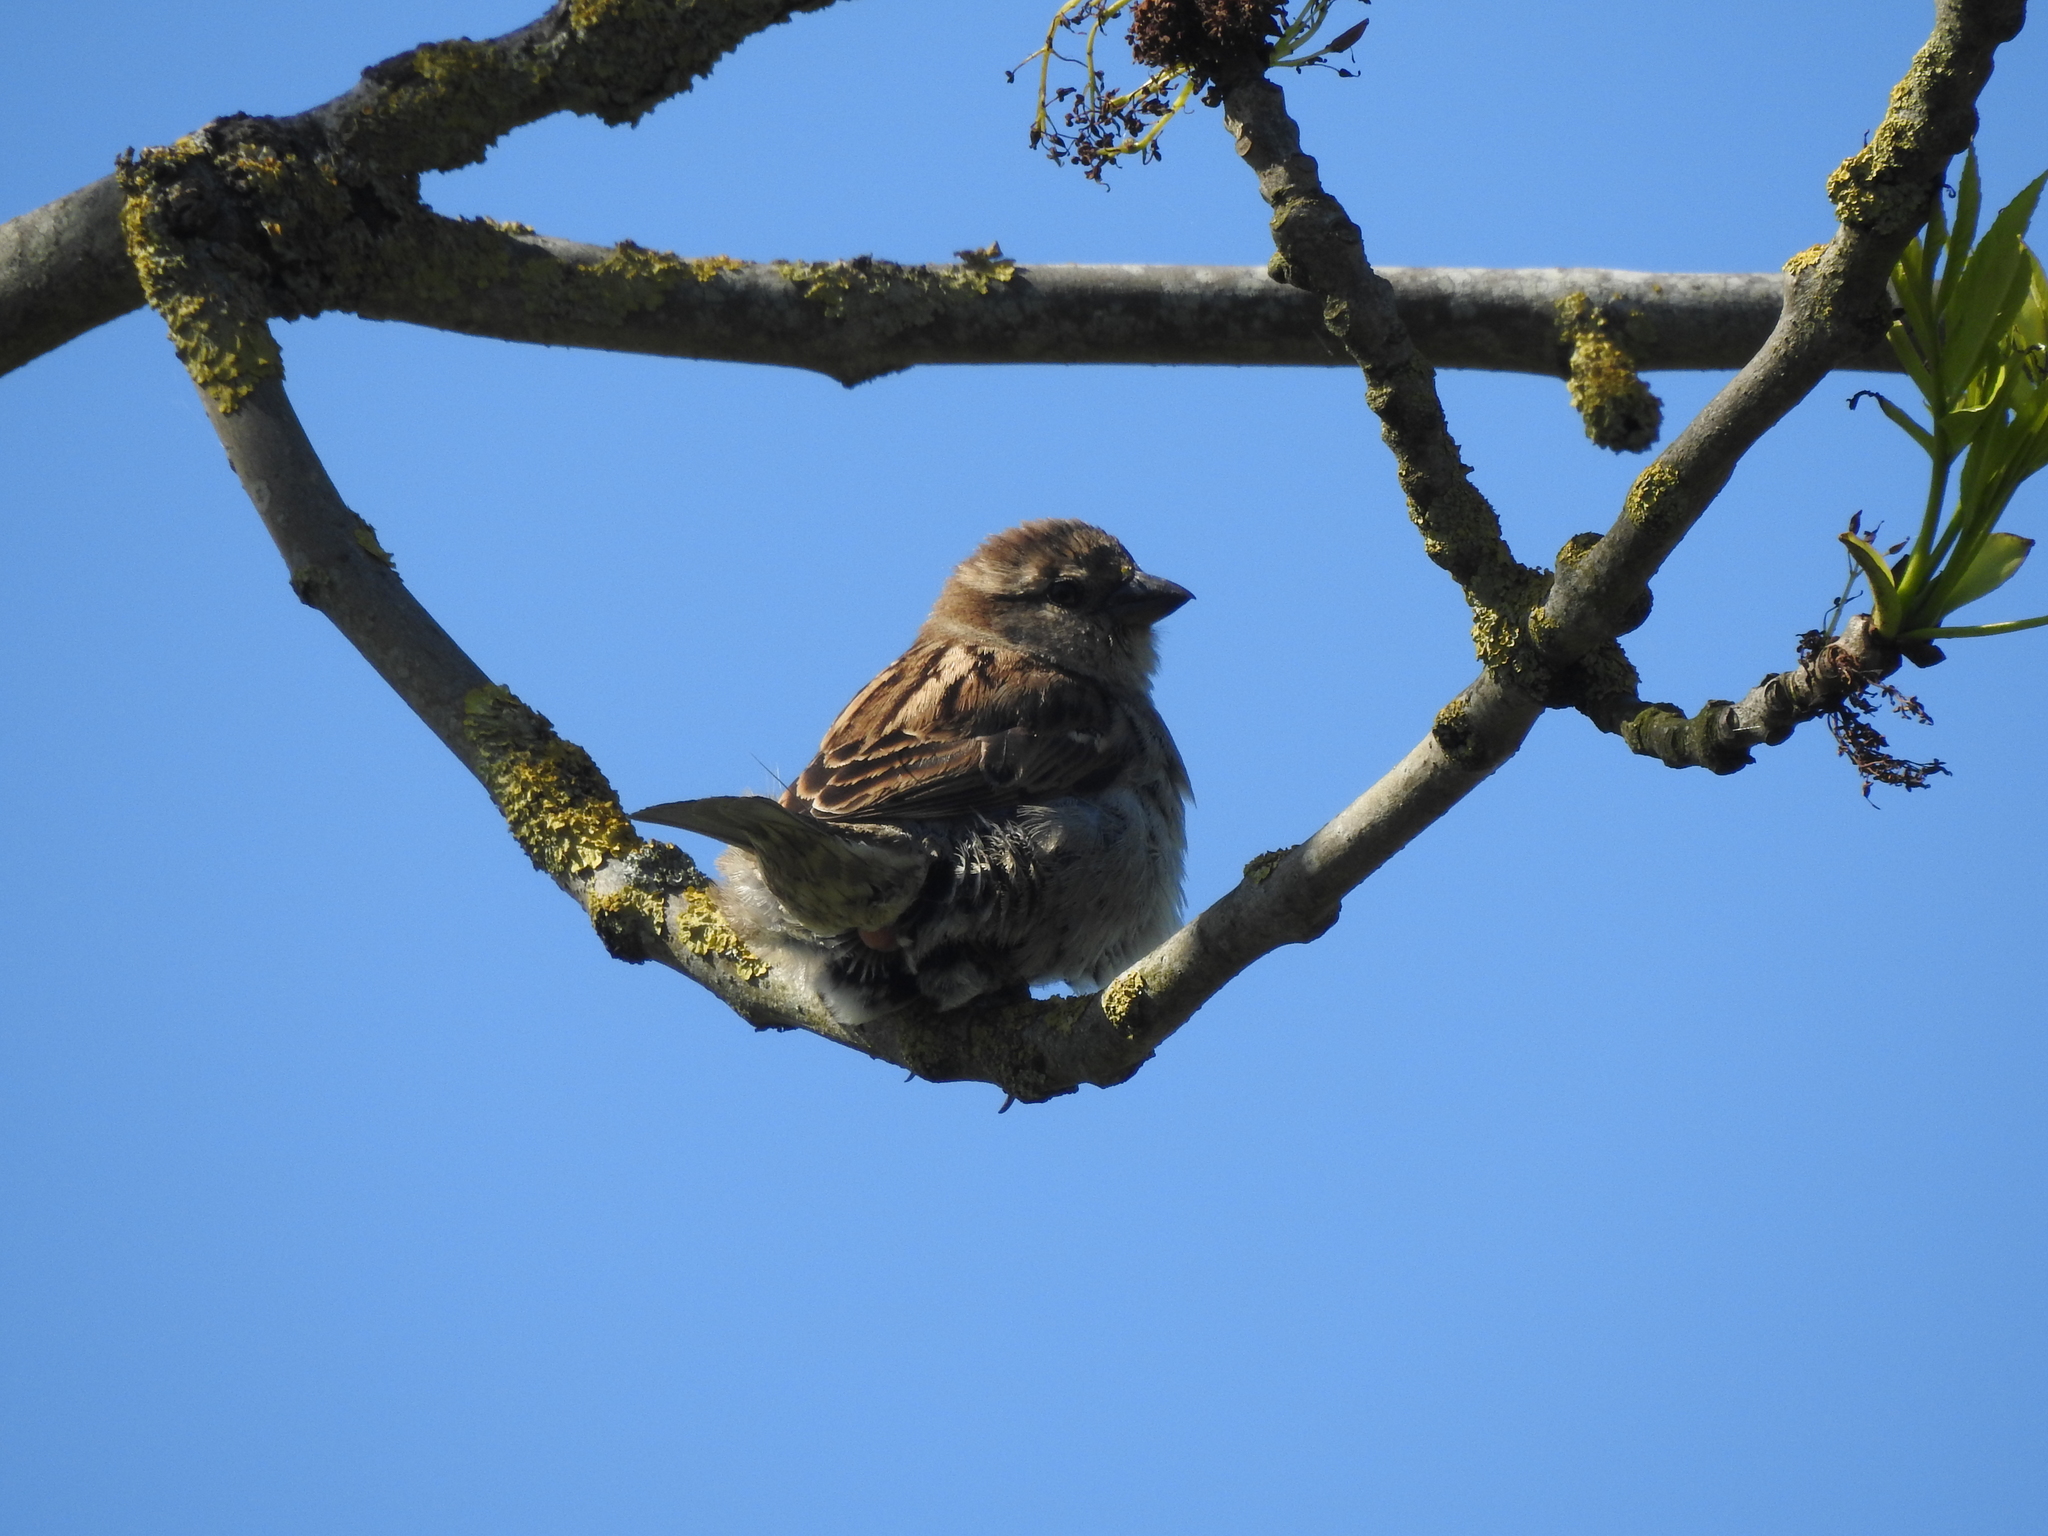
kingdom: Animalia
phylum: Chordata
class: Aves
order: Passeriformes
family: Passeridae
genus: Passer
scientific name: Passer domesticus
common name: House sparrow
